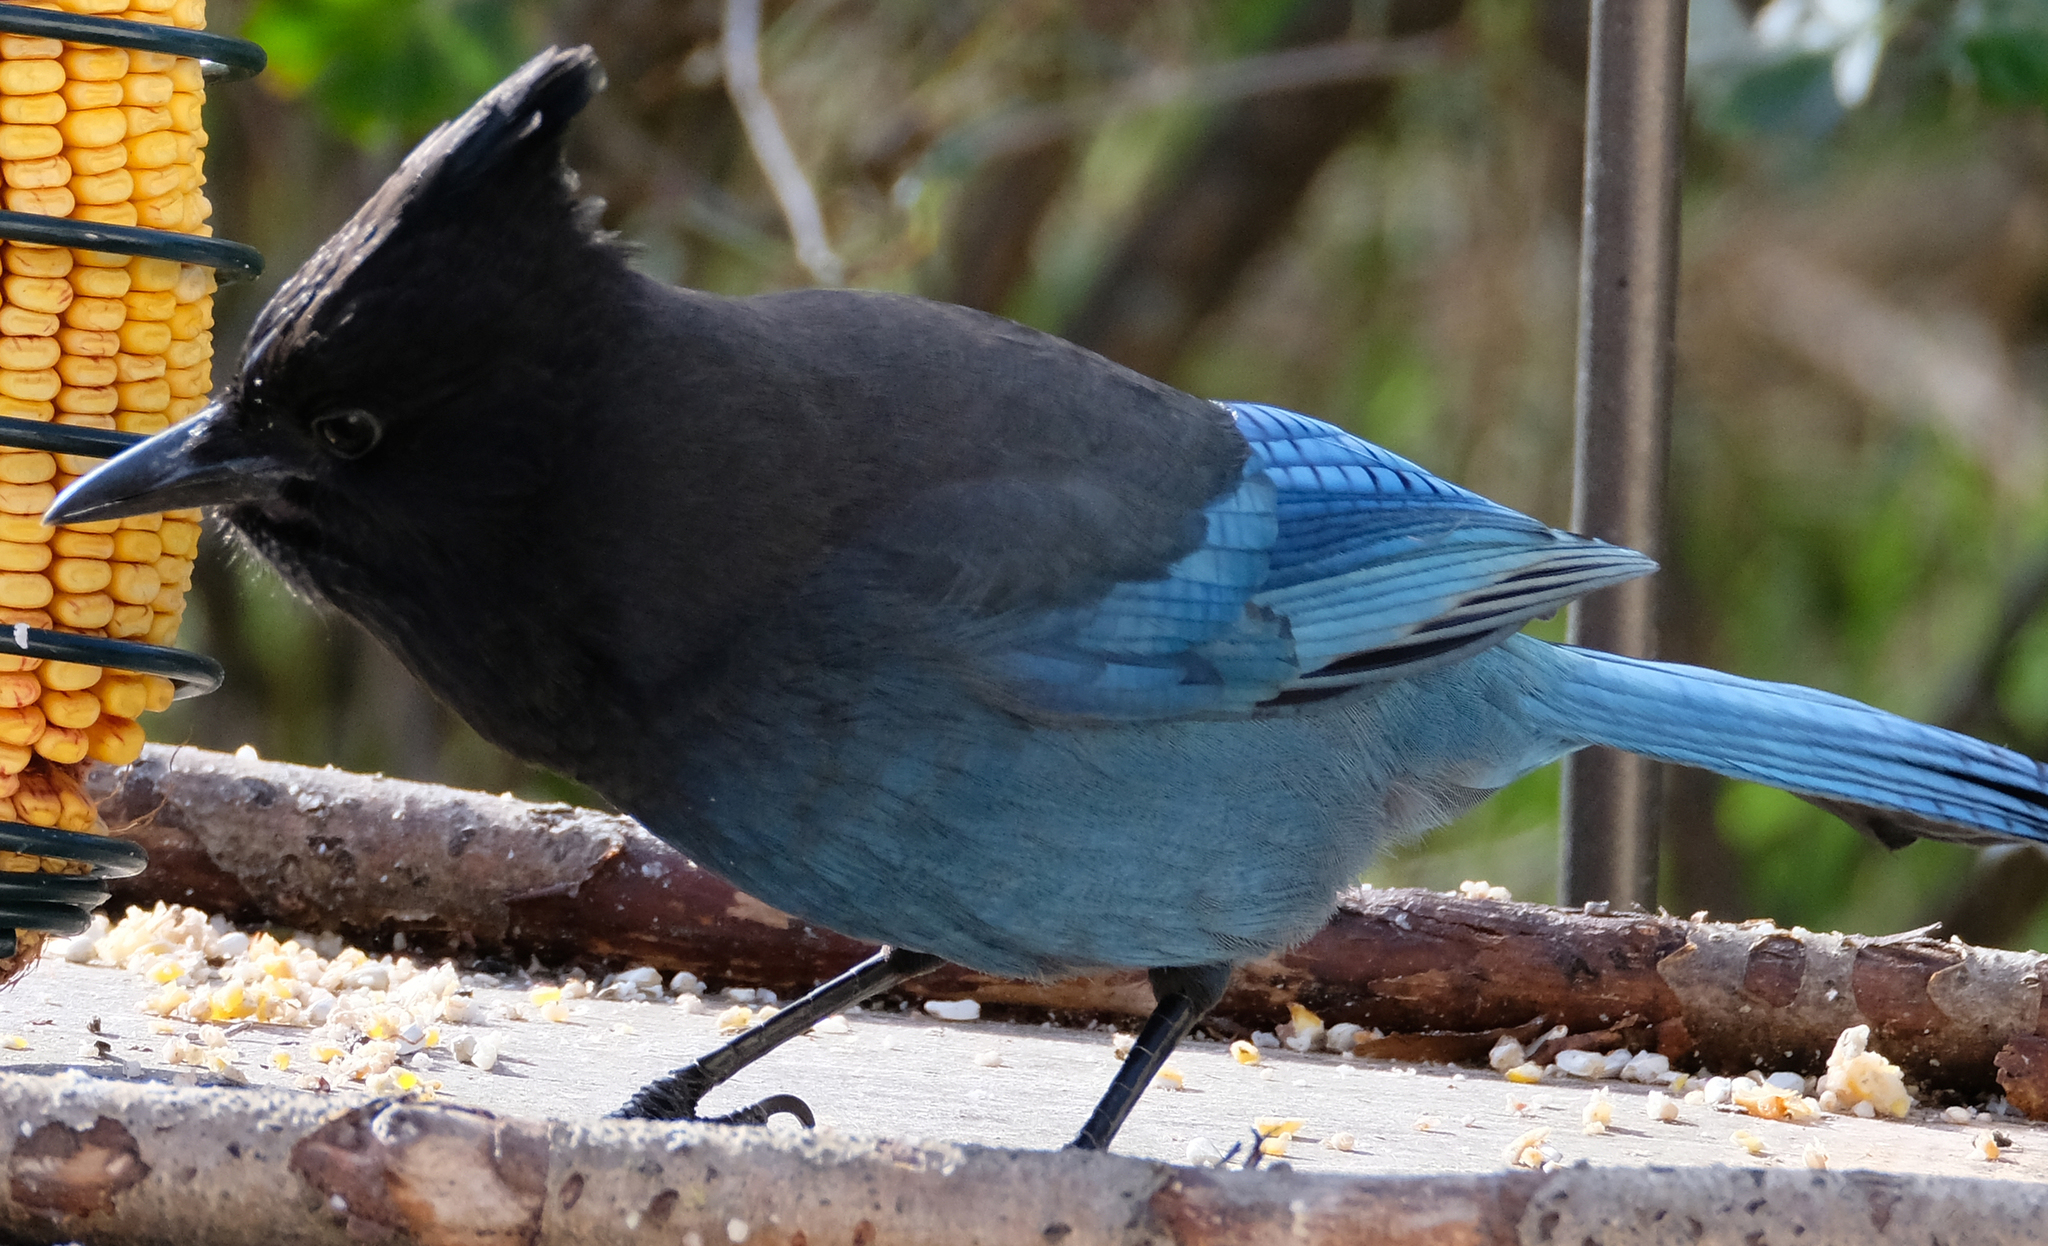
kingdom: Animalia
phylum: Chordata
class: Aves
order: Passeriformes
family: Corvidae
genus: Cyanocitta
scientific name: Cyanocitta stelleri
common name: Steller's jay
